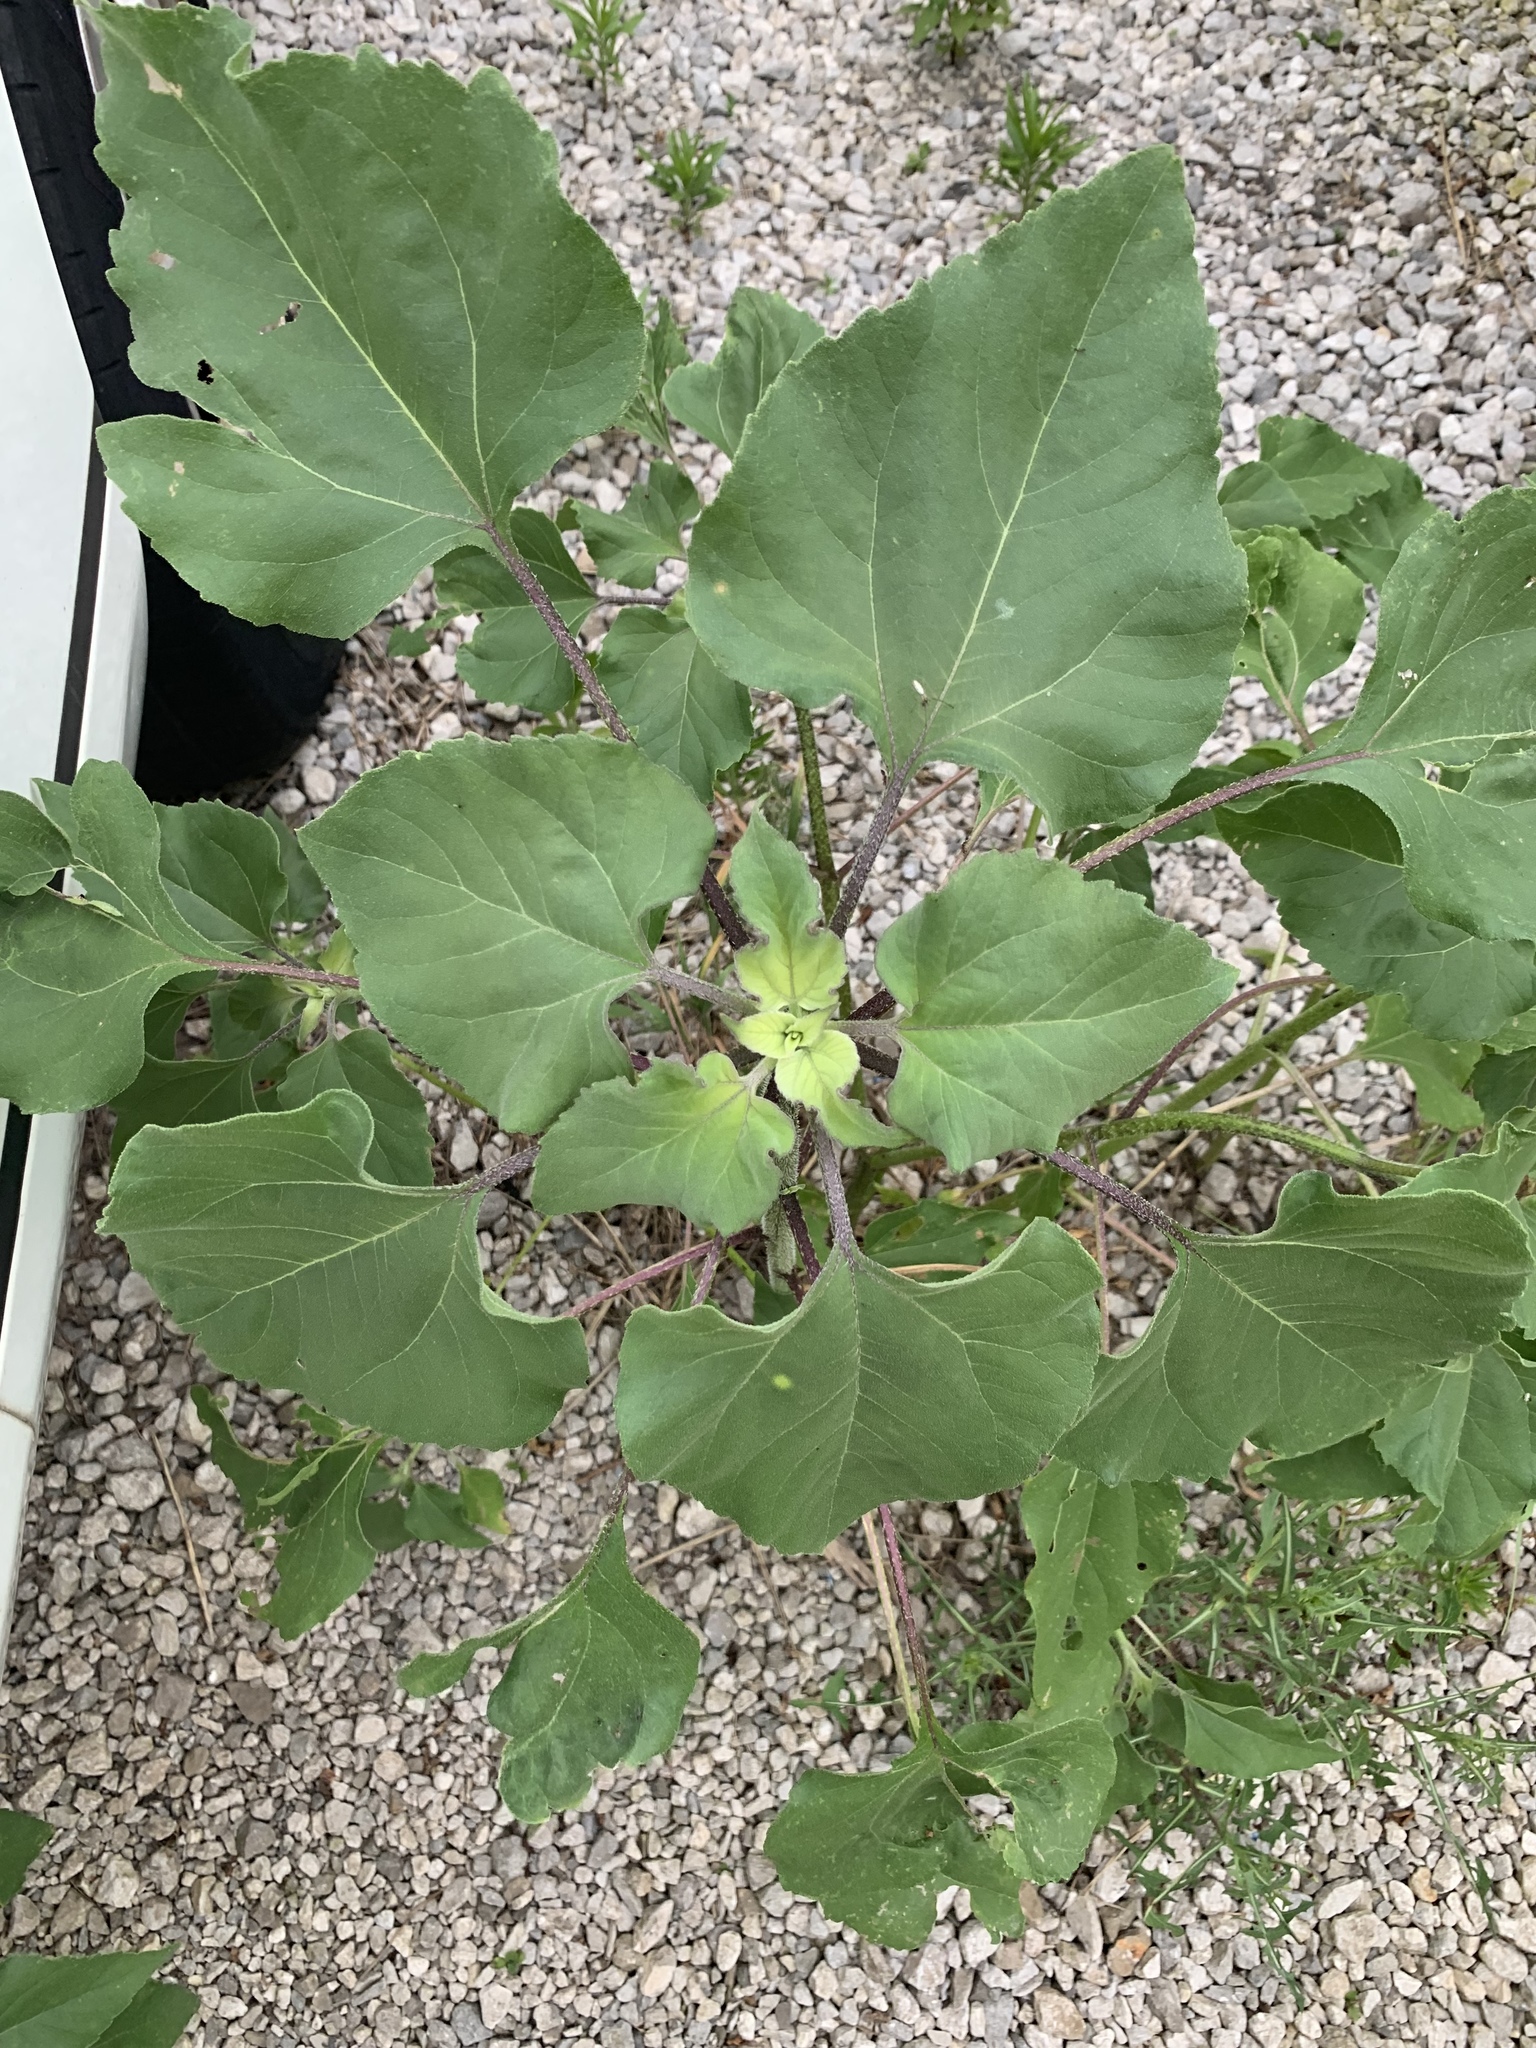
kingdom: Plantae
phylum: Tracheophyta
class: Magnoliopsida
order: Asterales
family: Asteraceae
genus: Helianthus
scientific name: Helianthus annuus
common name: Sunflower
